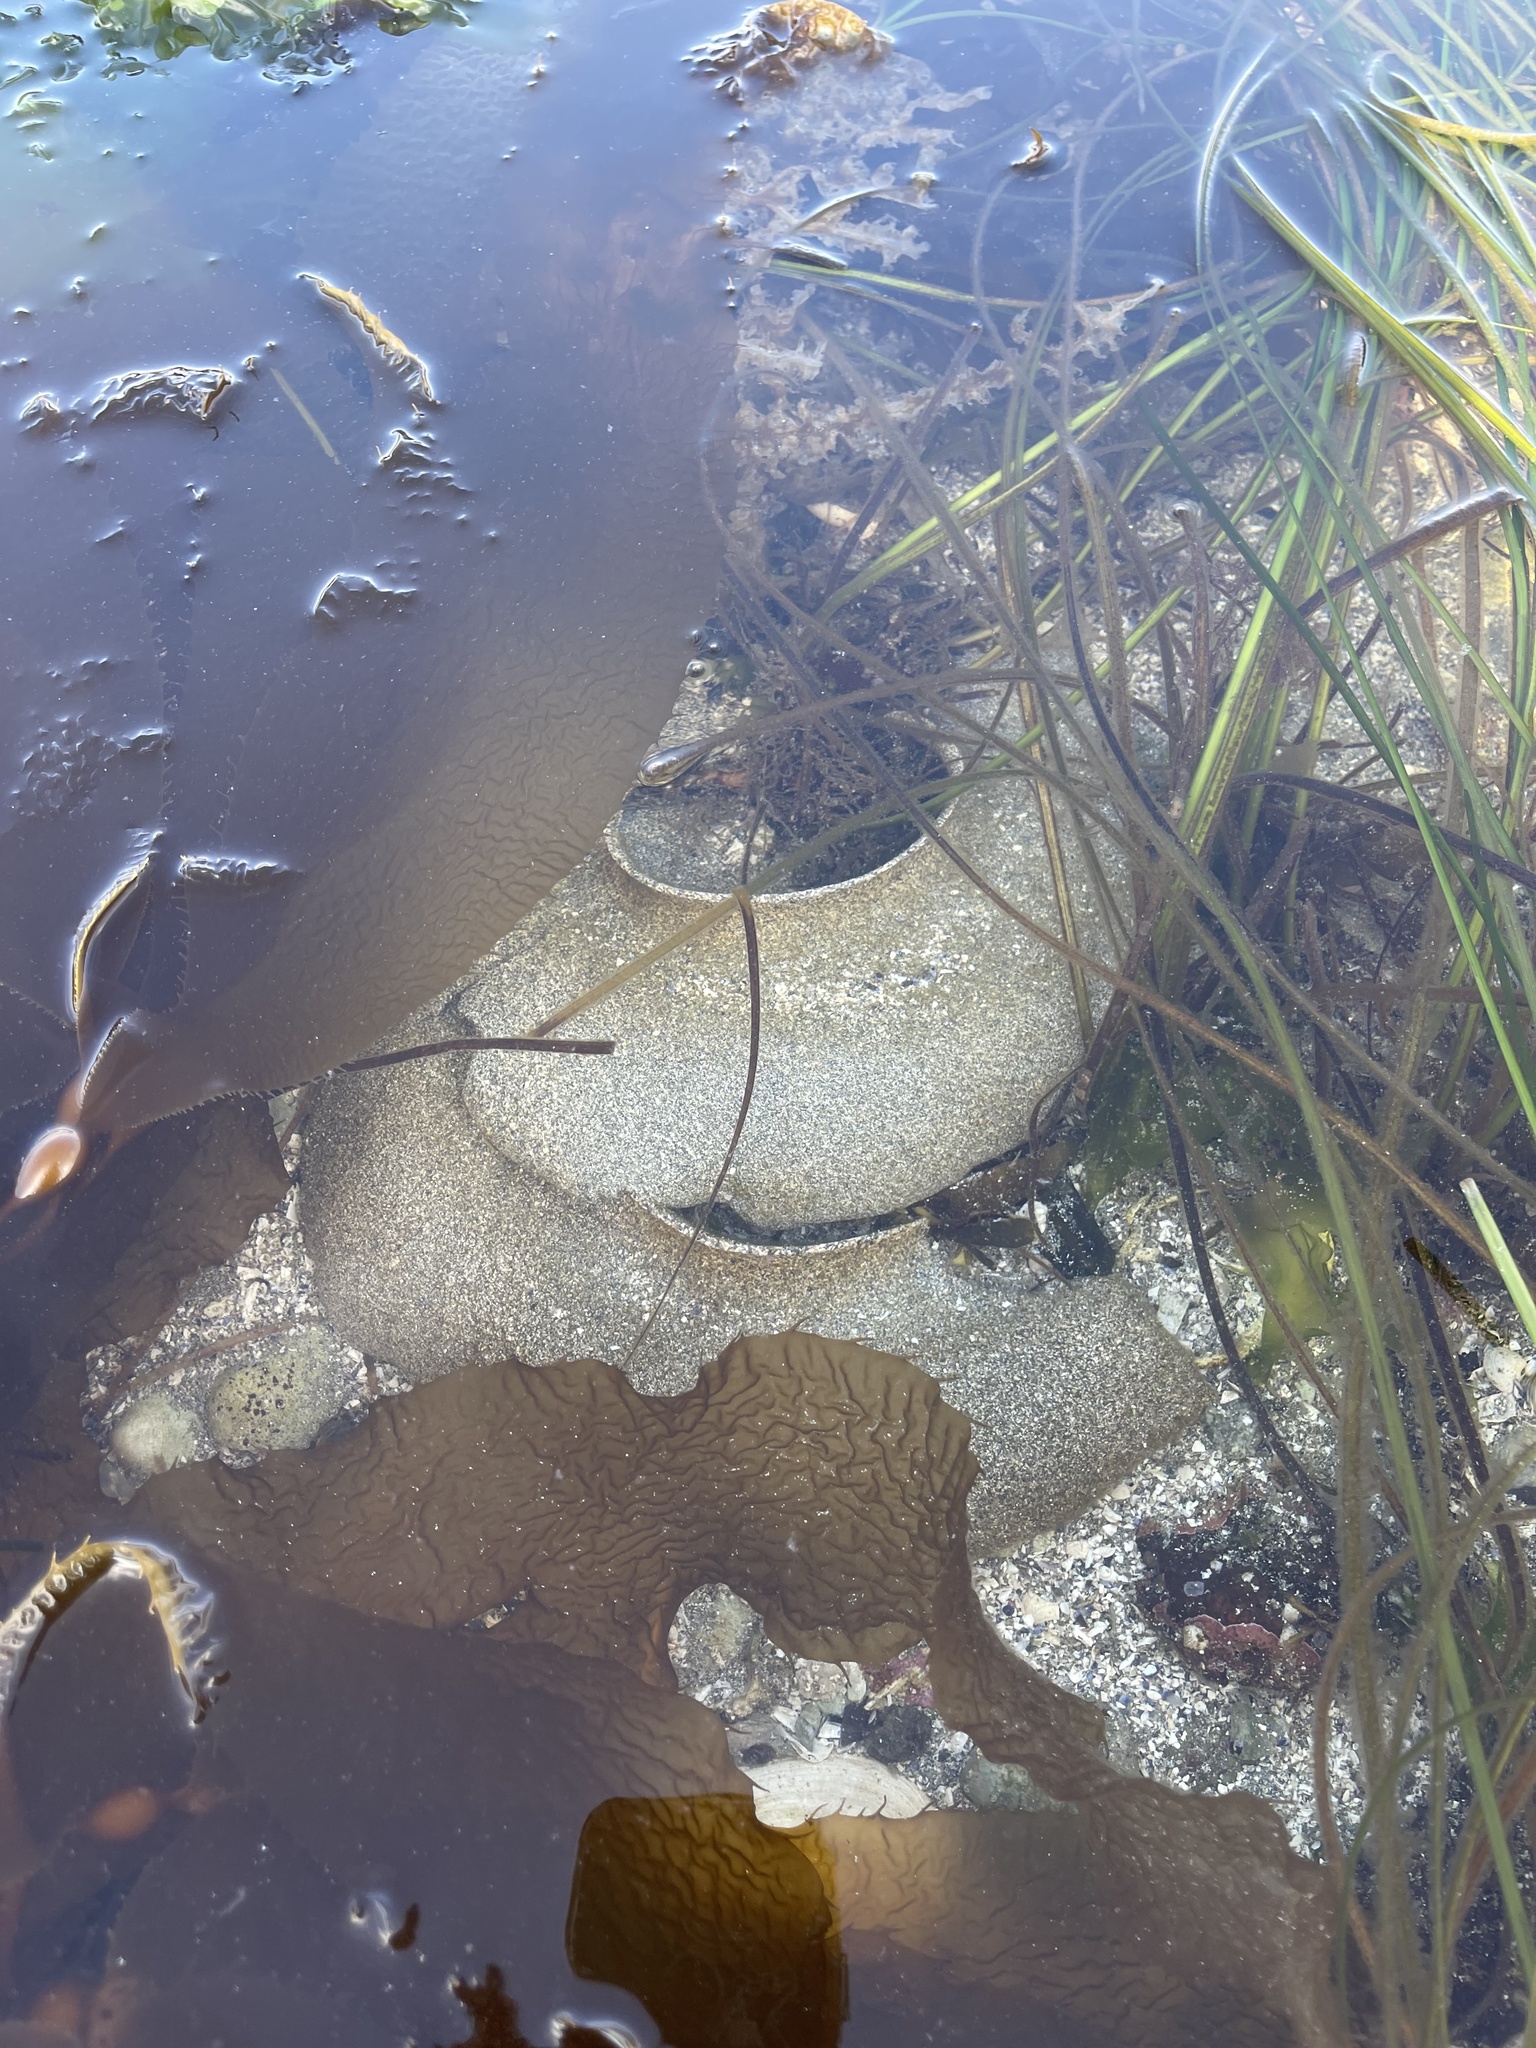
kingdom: Animalia
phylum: Mollusca
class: Gastropoda
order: Littorinimorpha
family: Naticidae
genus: Neverita
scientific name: Neverita lewisii
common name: Lewis' moonsnail
